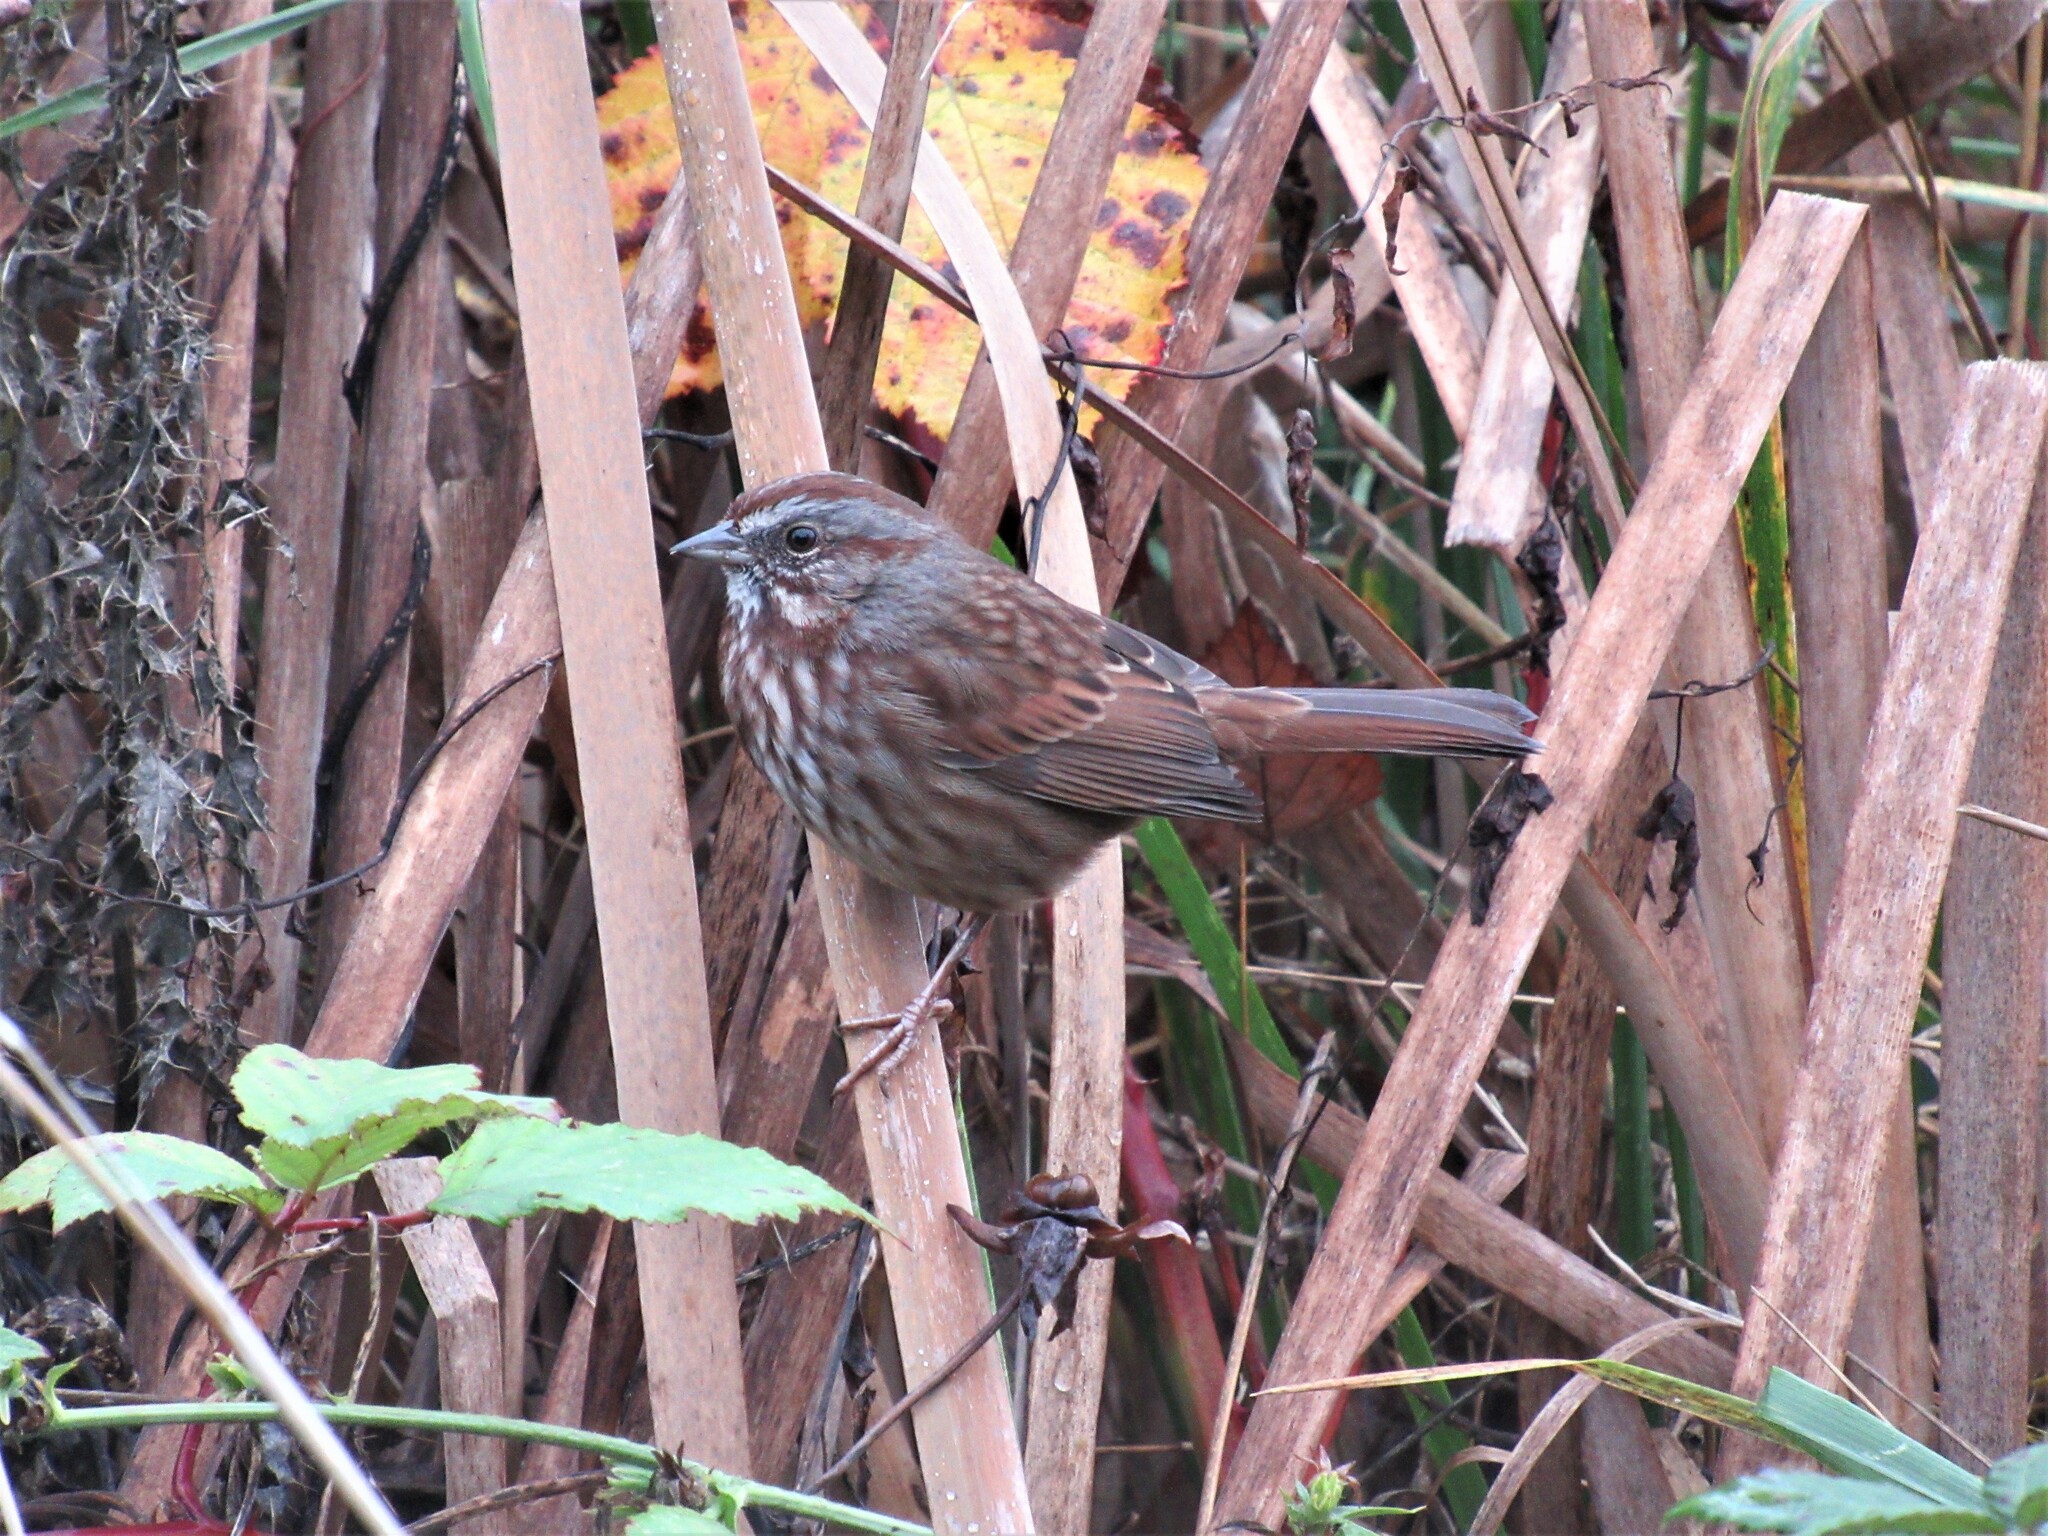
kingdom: Animalia
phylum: Chordata
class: Aves
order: Passeriformes
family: Passerellidae
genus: Melospiza
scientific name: Melospiza melodia
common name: Song sparrow
